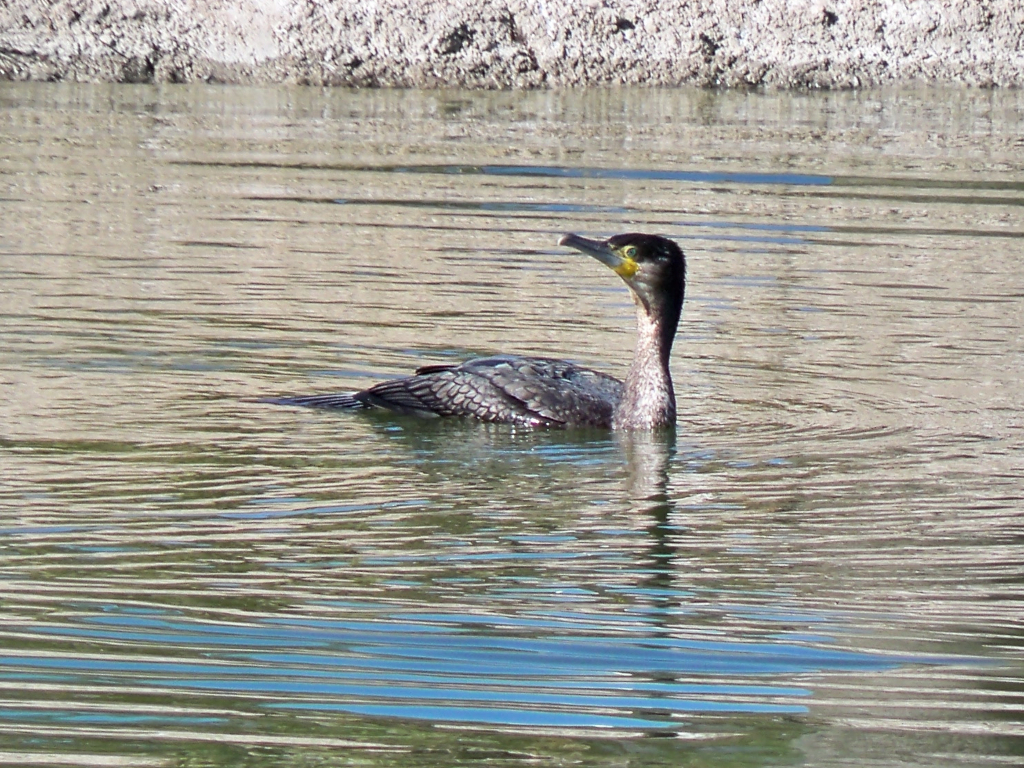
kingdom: Animalia
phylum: Chordata
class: Aves
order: Suliformes
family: Phalacrocoracidae
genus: Phalacrocorax
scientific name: Phalacrocorax carbo
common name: Great cormorant
